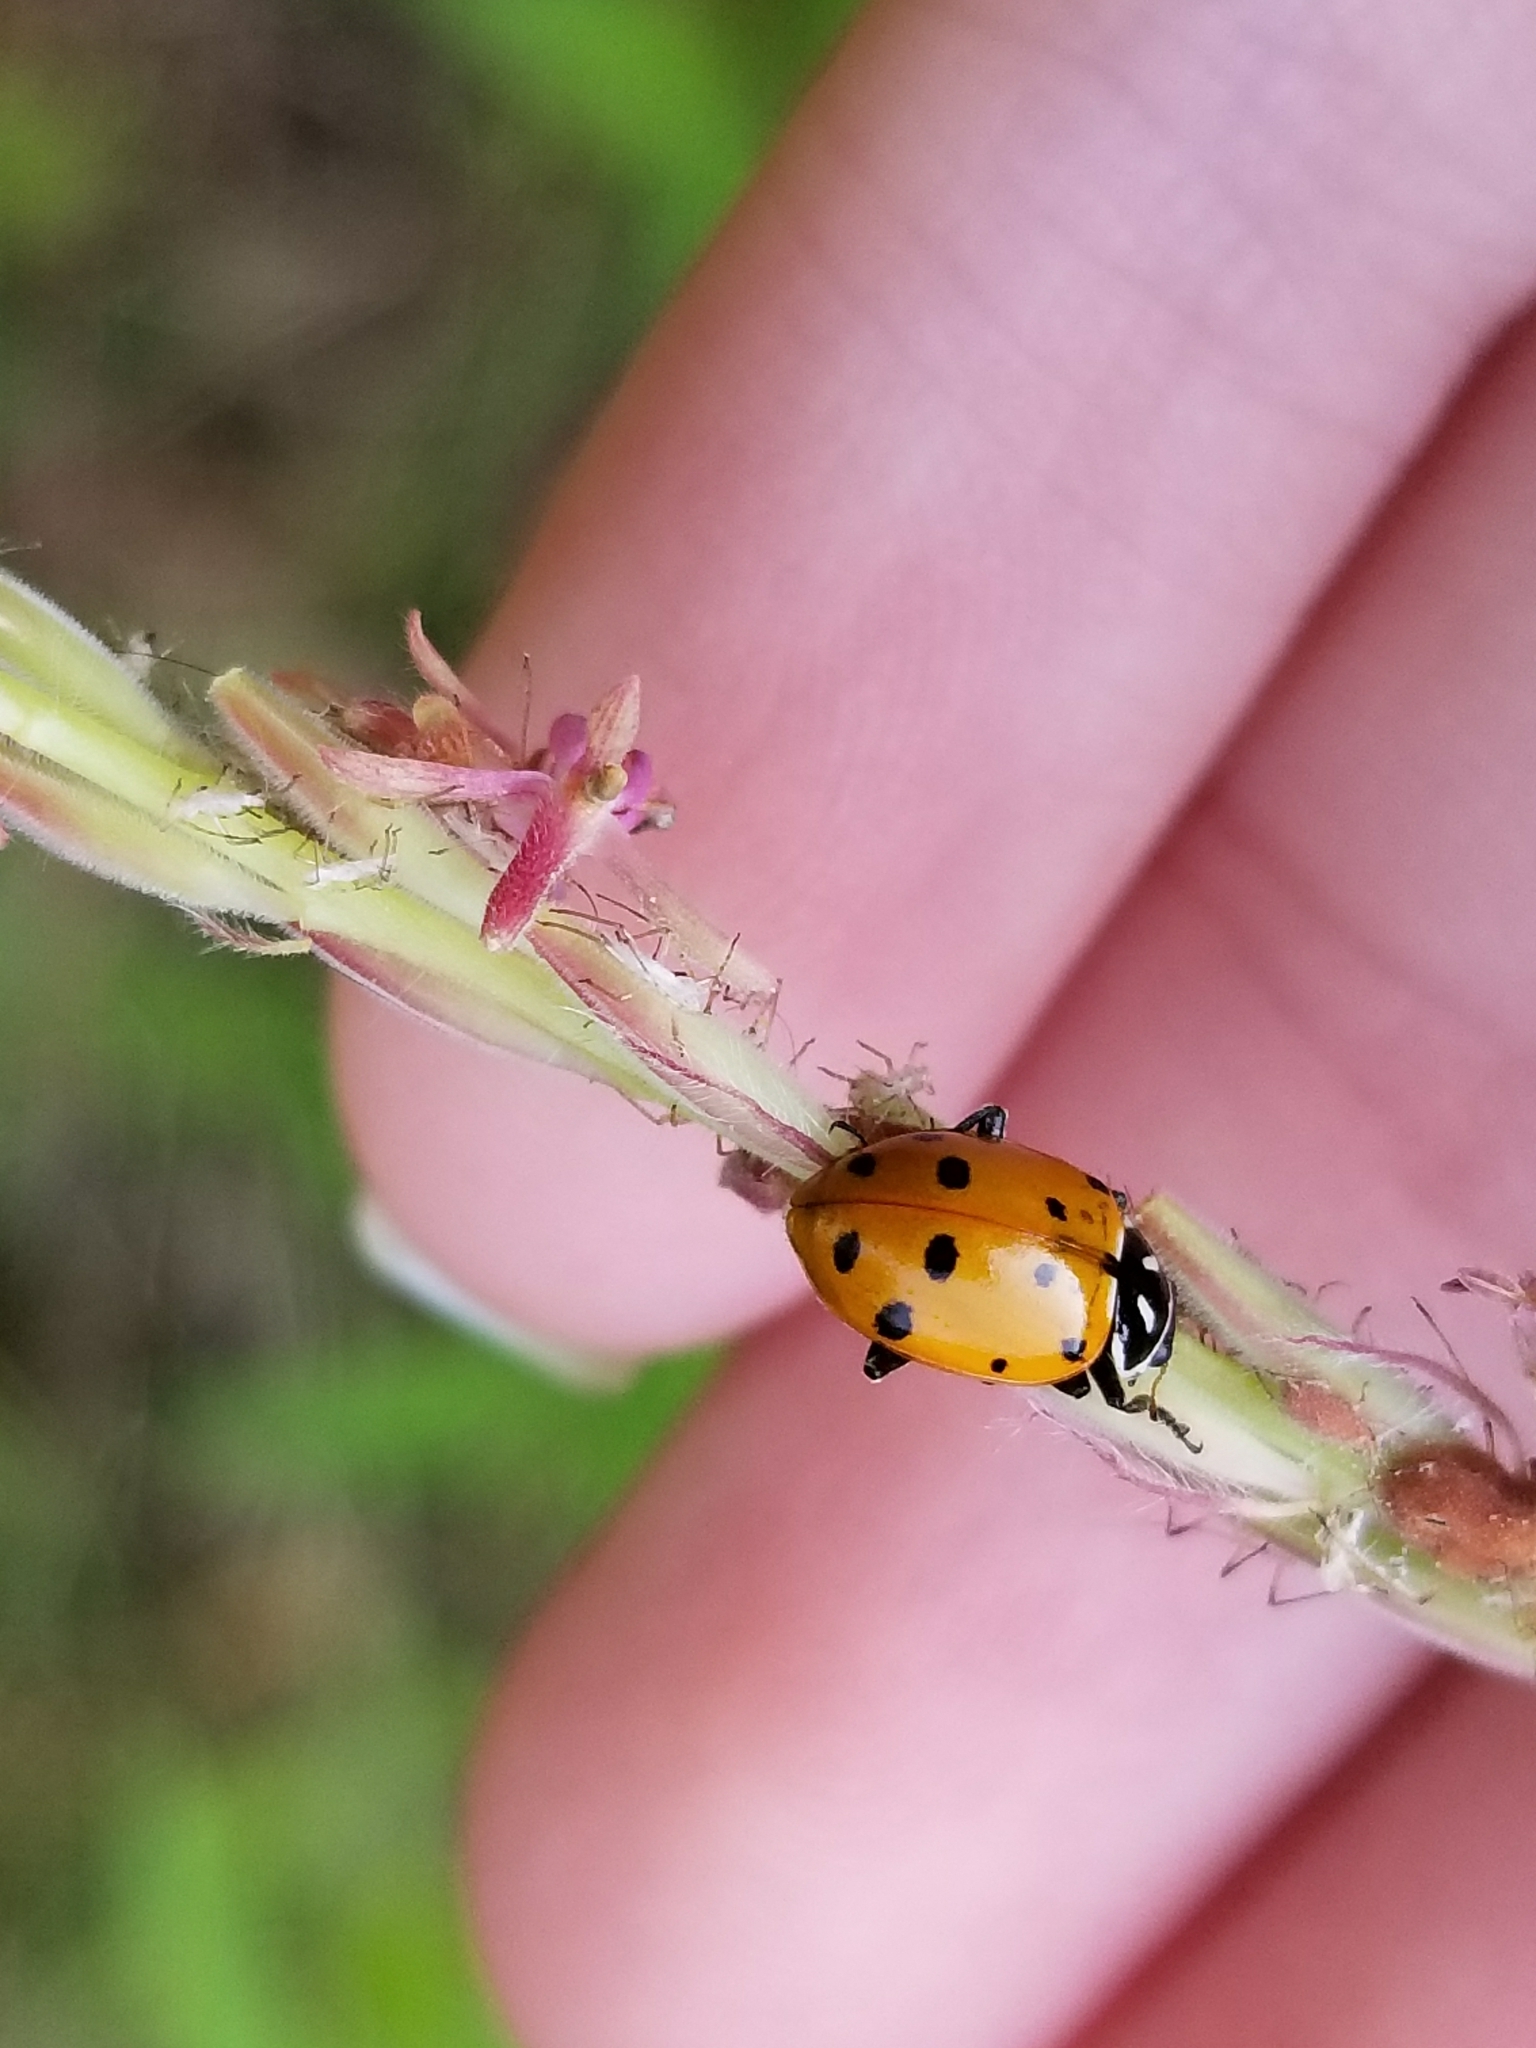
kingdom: Animalia
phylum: Arthropoda
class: Insecta
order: Coleoptera
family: Coccinellidae
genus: Hippodamia
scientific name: Hippodamia convergens
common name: Convergent lady beetle
